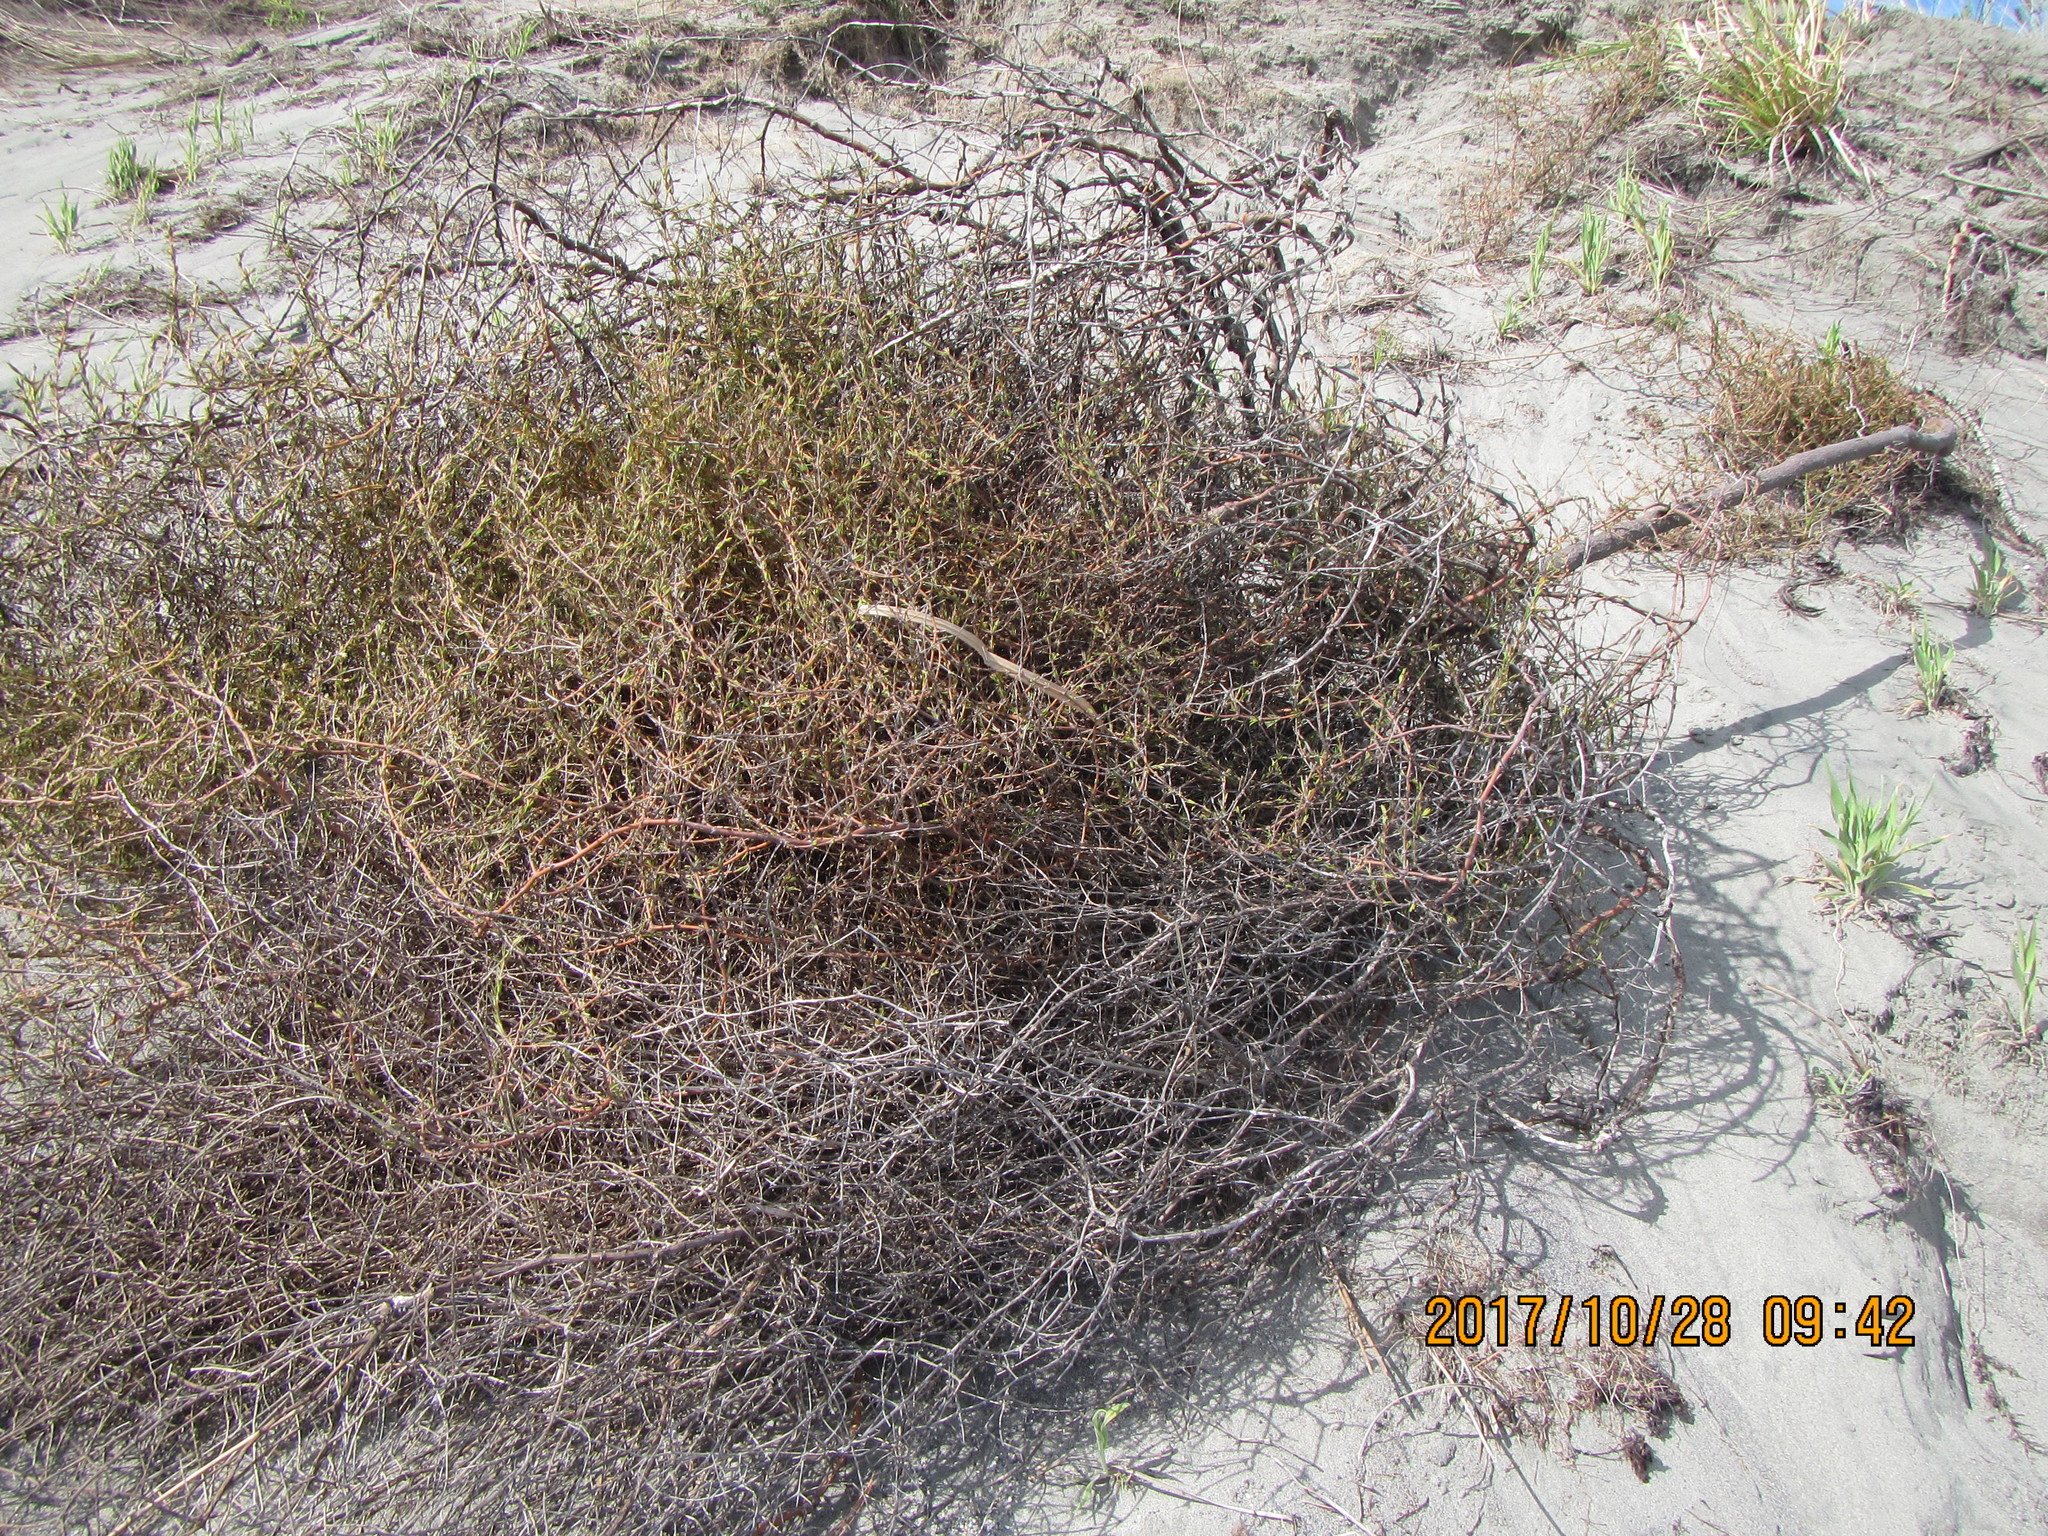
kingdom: Plantae
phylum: Tracheophyta
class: Magnoliopsida
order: Gentianales
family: Rubiaceae
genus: Coprosma
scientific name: Coprosma acerosa
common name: Sand coprosma
